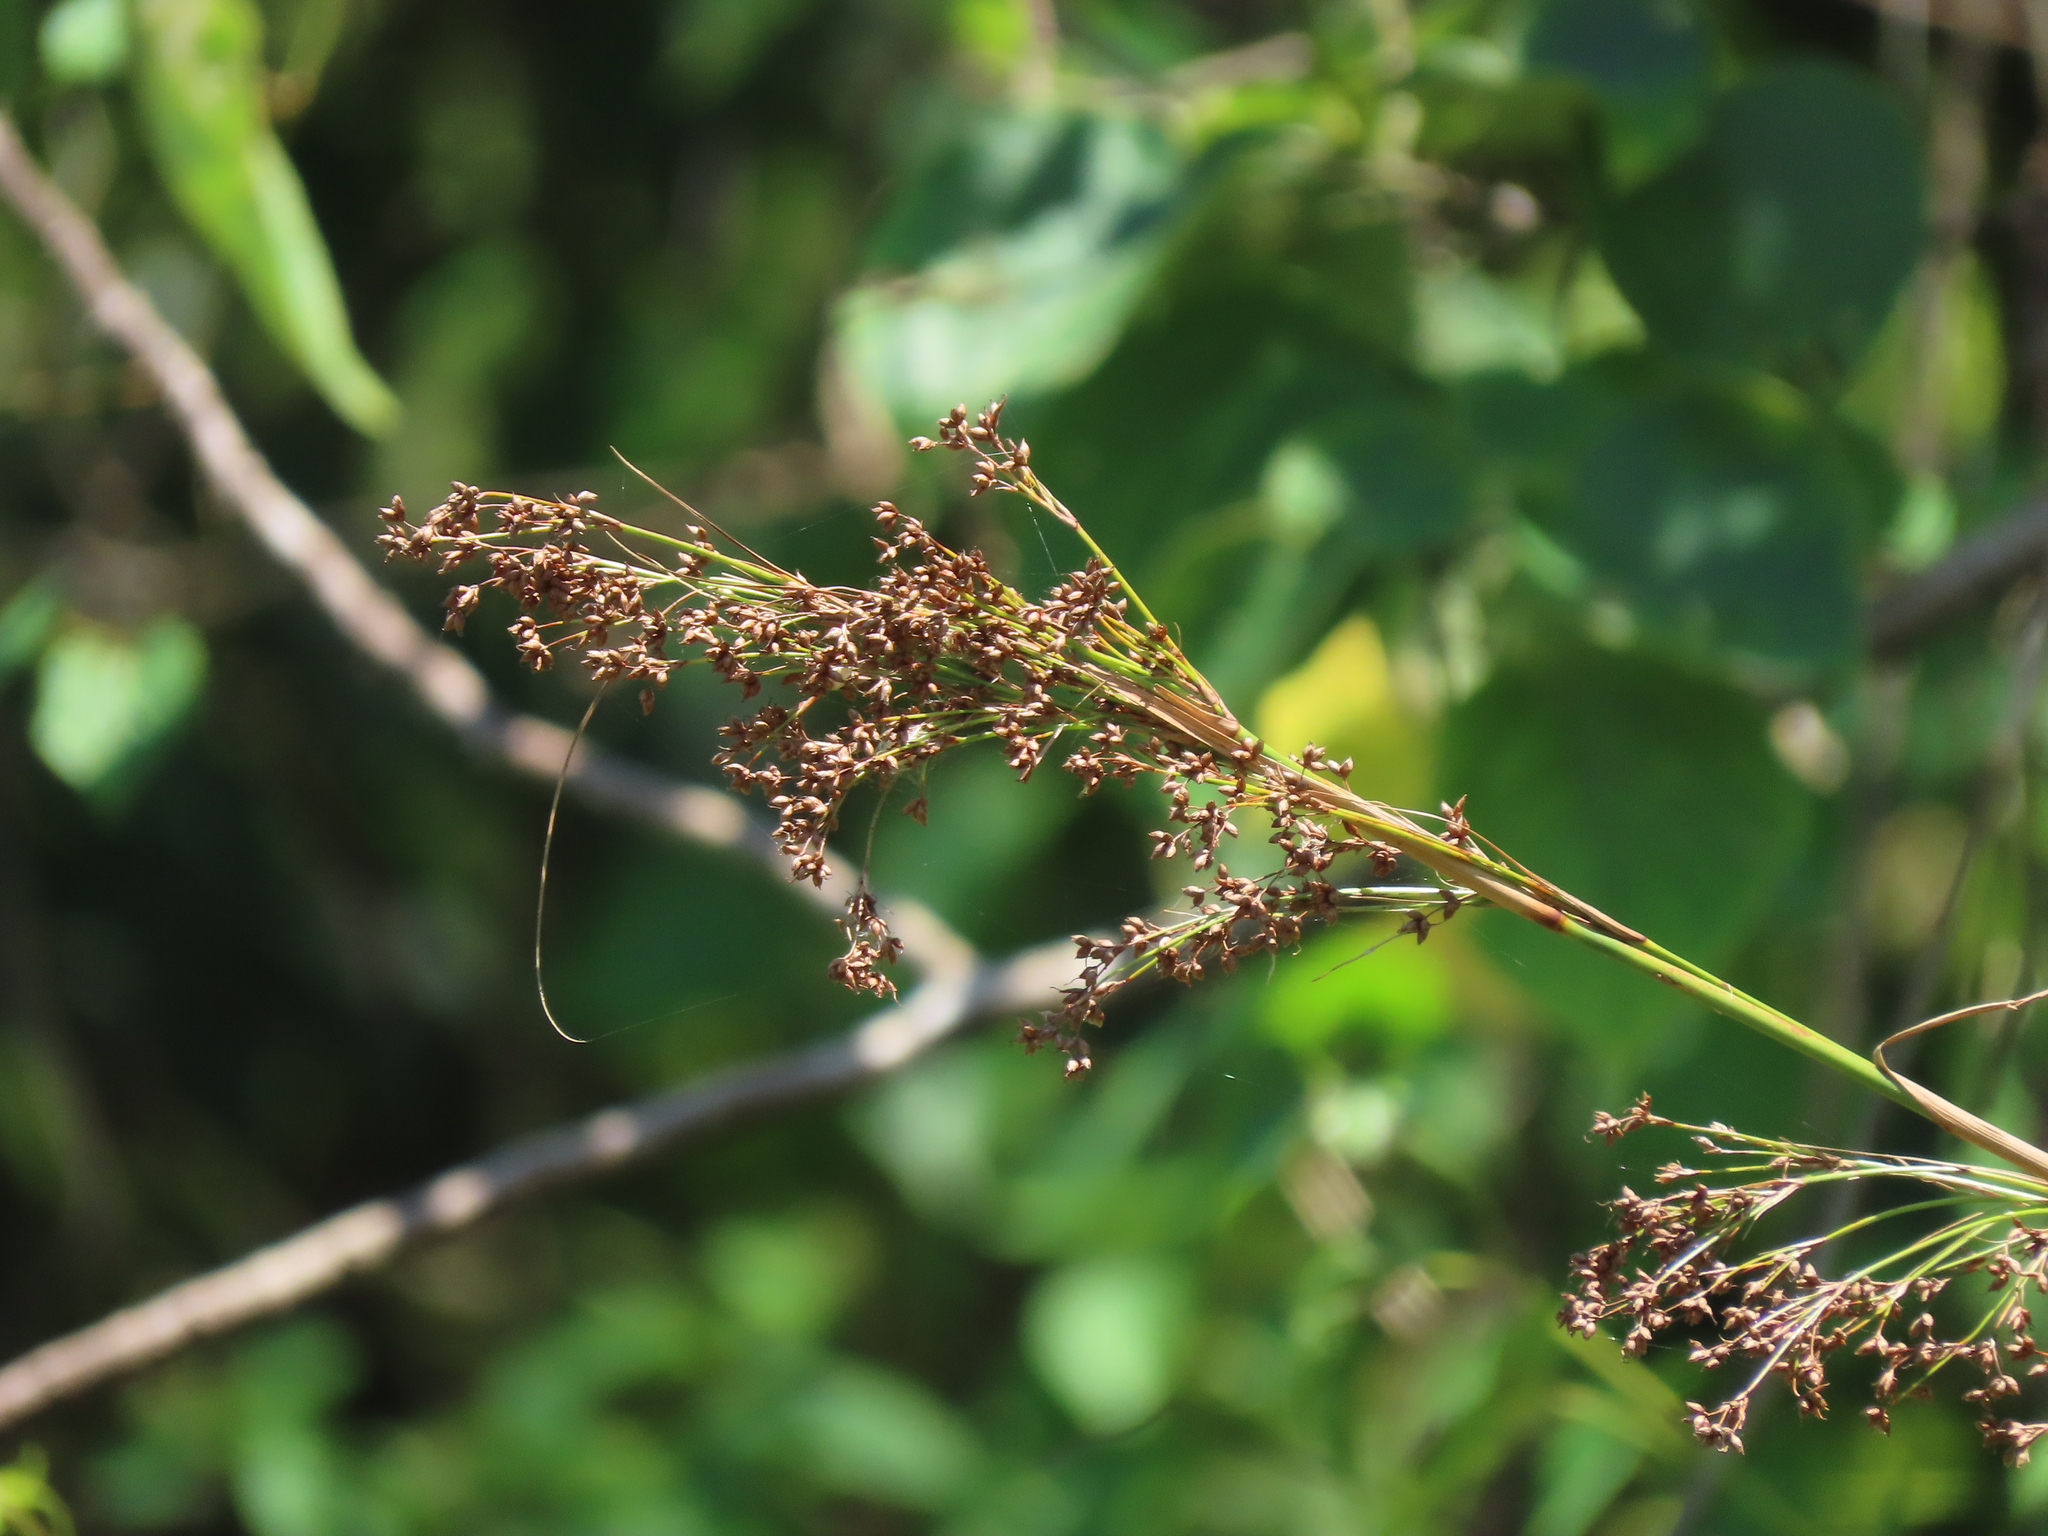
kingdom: Plantae
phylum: Tracheophyta
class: Liliopsida
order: Poales
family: Cyperaceae
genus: Cladium
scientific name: Cladium mariscus
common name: Great fen-sedge
